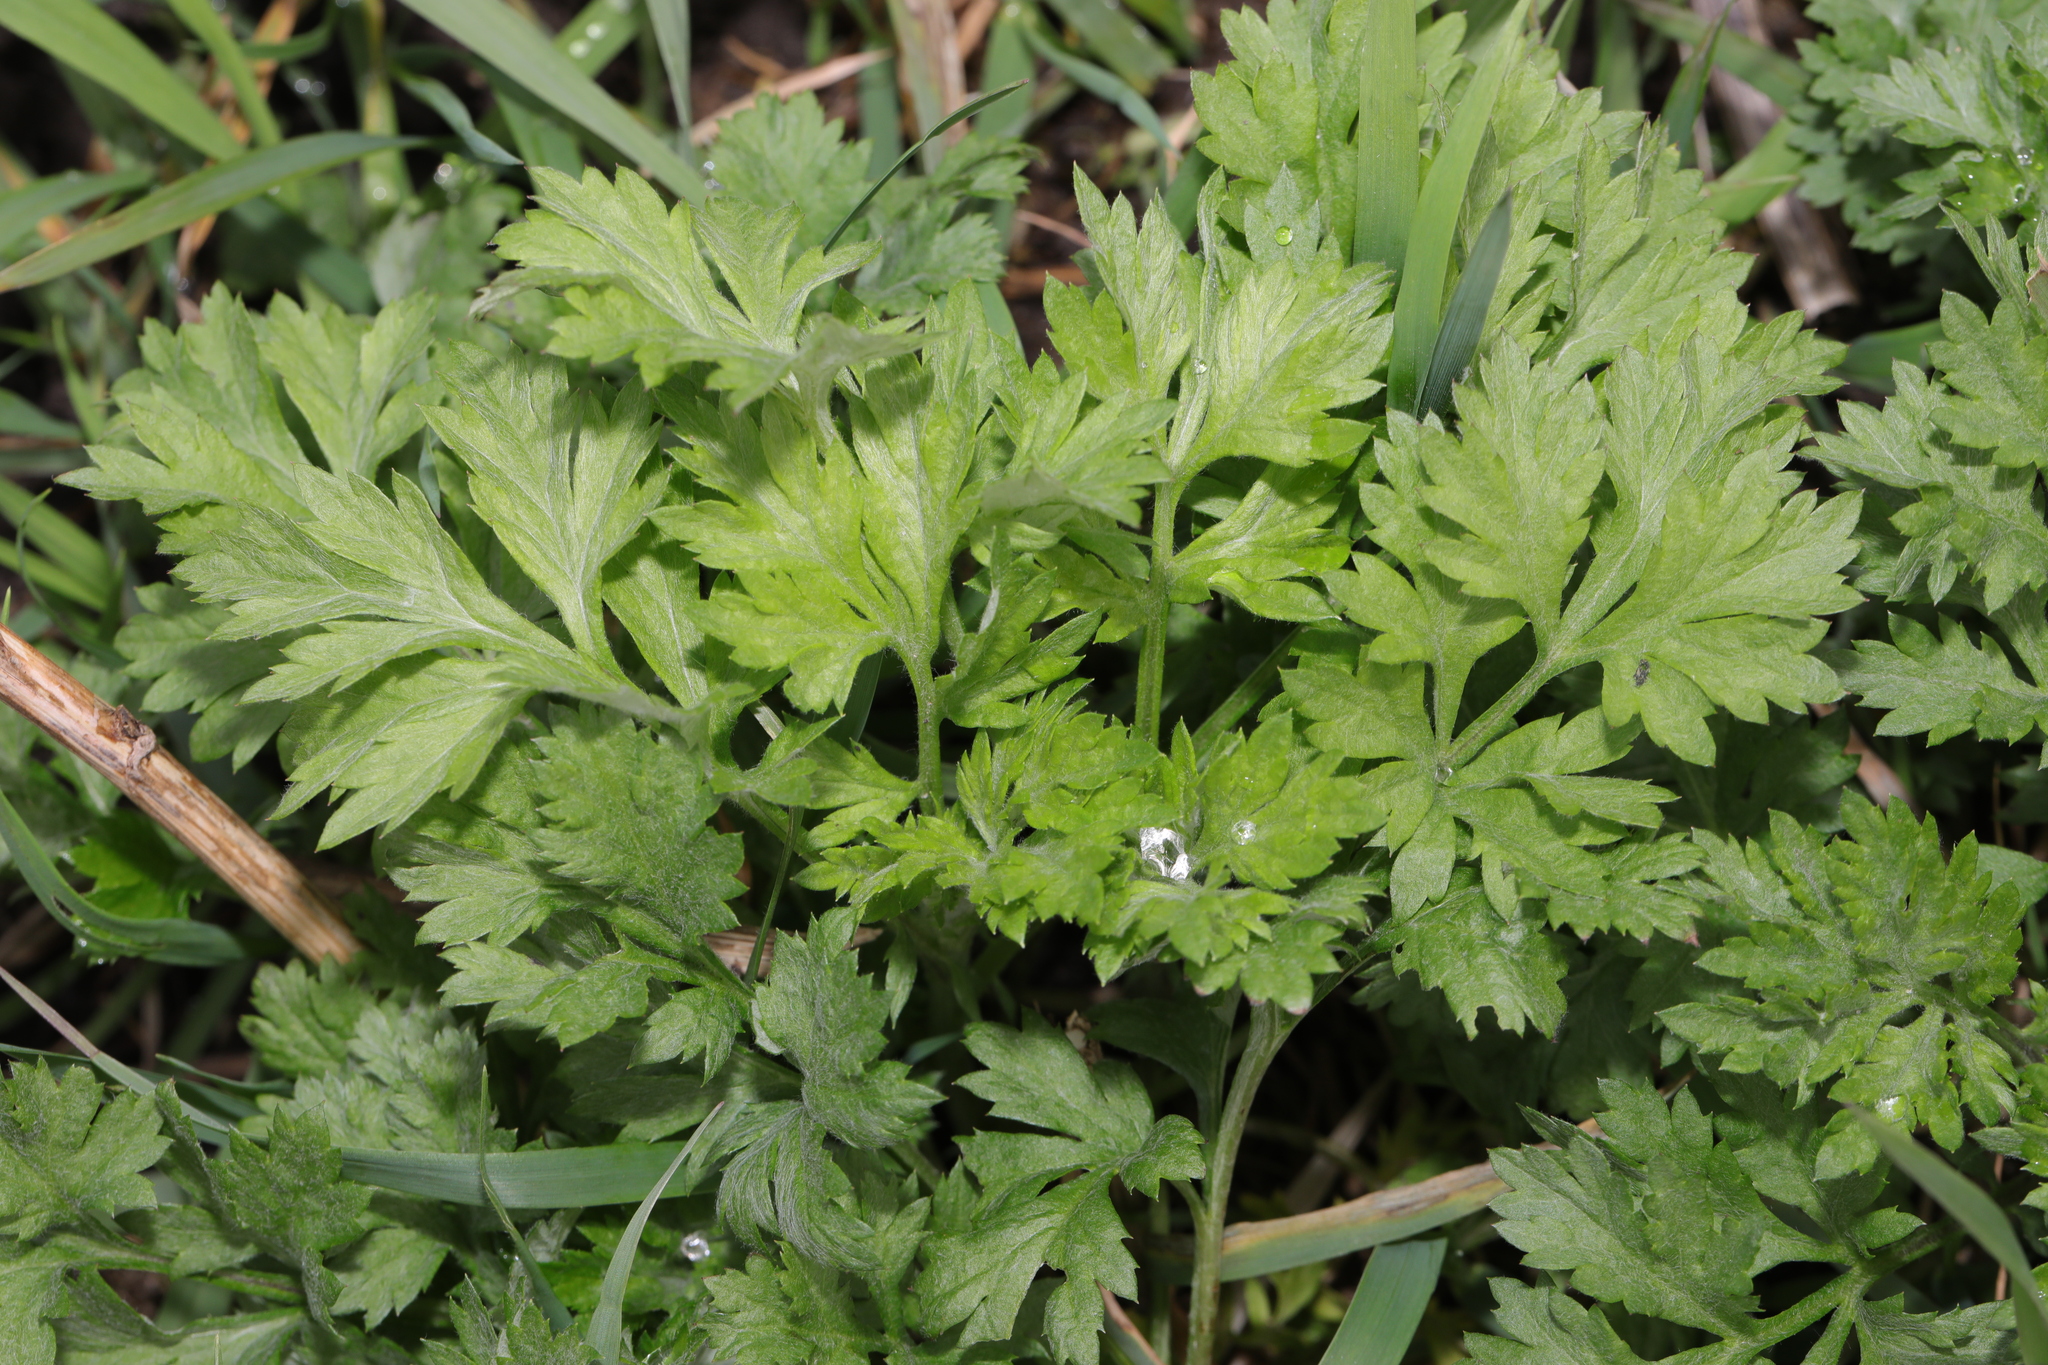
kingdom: Plantae
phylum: Tracheophyta
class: Magnoliopsida
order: Asterales
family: Asteraceae
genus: Artemisia
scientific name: Artemisia vulgaris
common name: Mugwort
